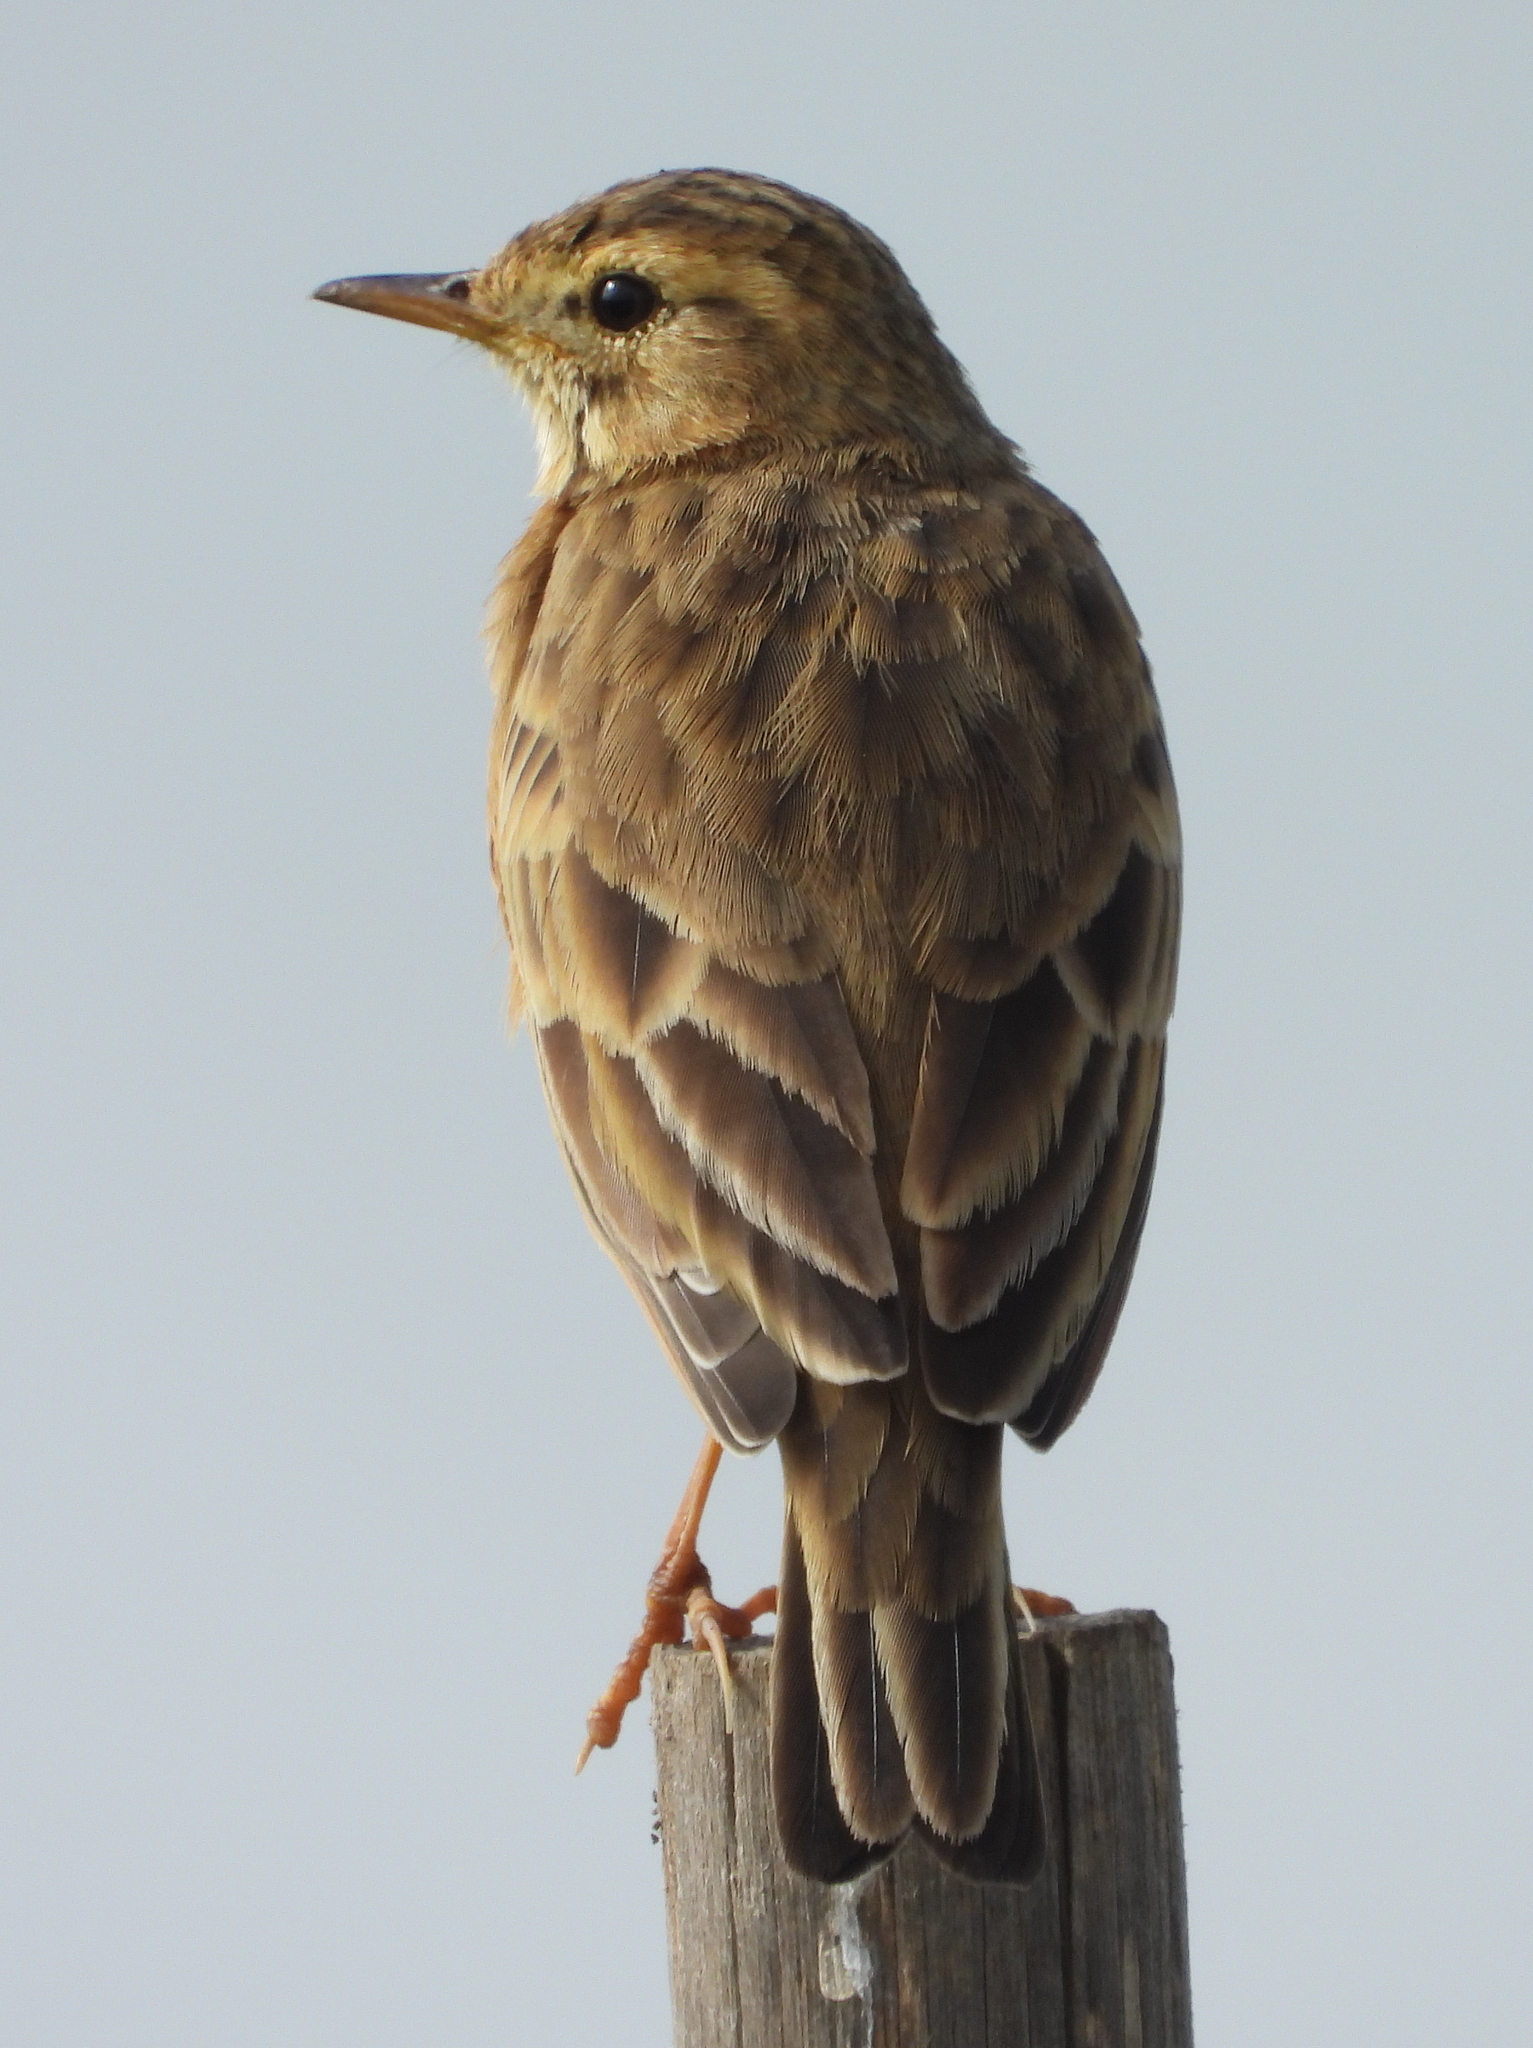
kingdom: Animalia
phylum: Chordata
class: Aves
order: Passeriformes
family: Motacillidae
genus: Anthus
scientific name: Anthus cinnamomeus
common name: African pipit
